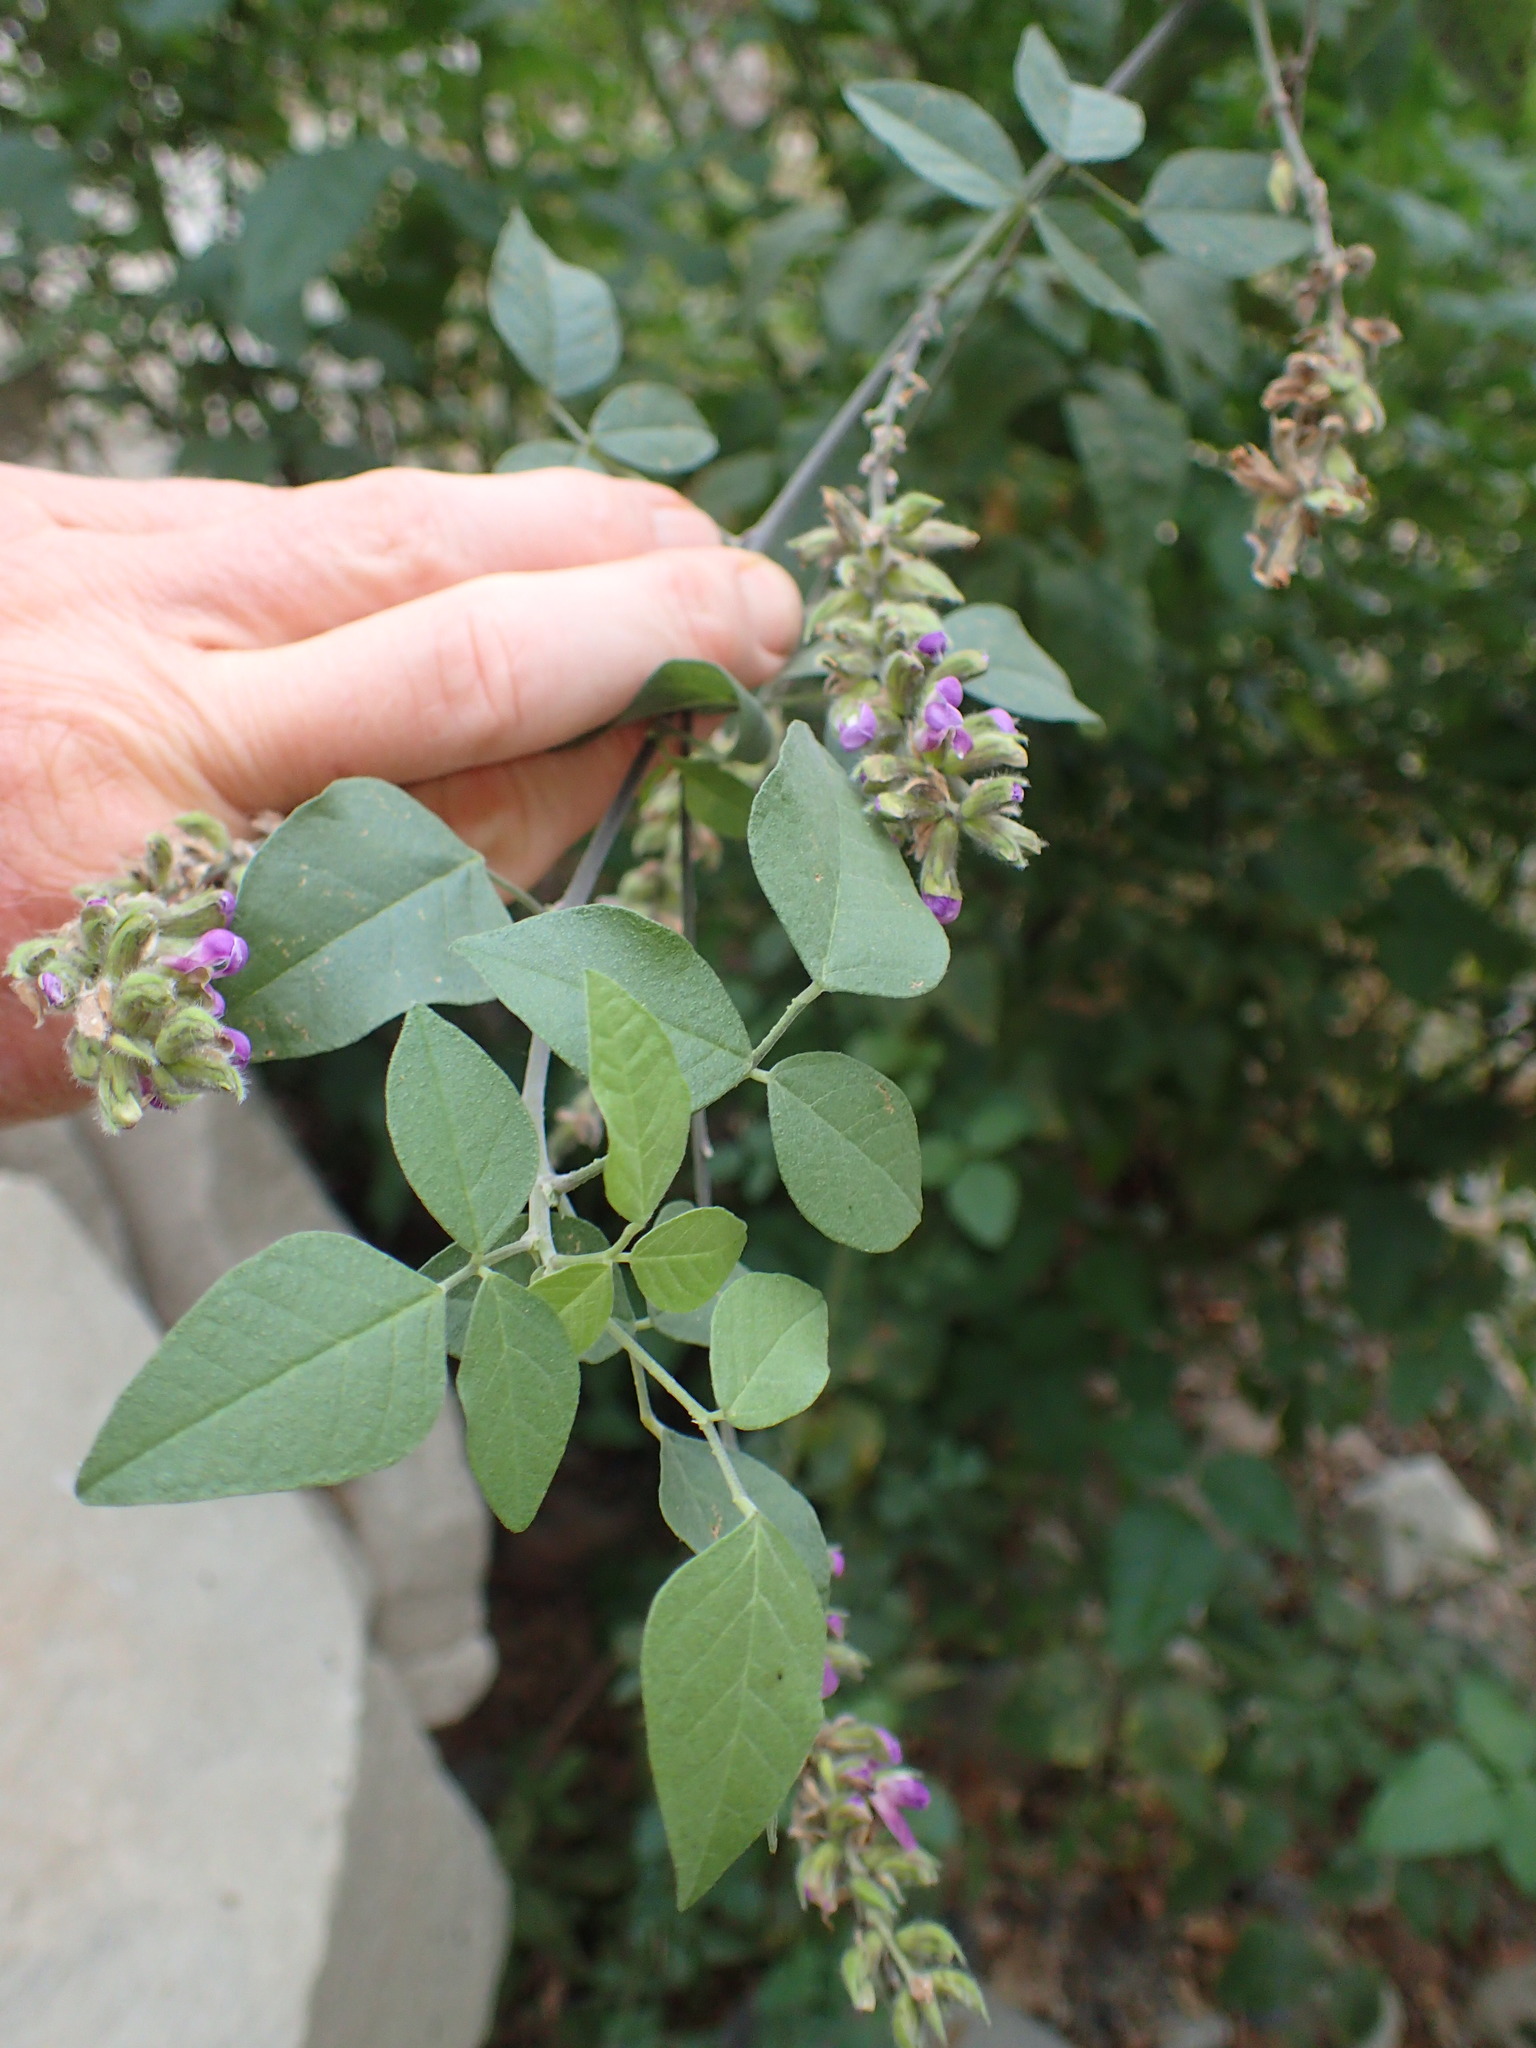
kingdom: Plantae
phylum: Tracheophyta
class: Magnoliopsida
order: Fabales
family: Fabaceae
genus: Hoita
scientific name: Hoita macrostachya
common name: Leatherroot
